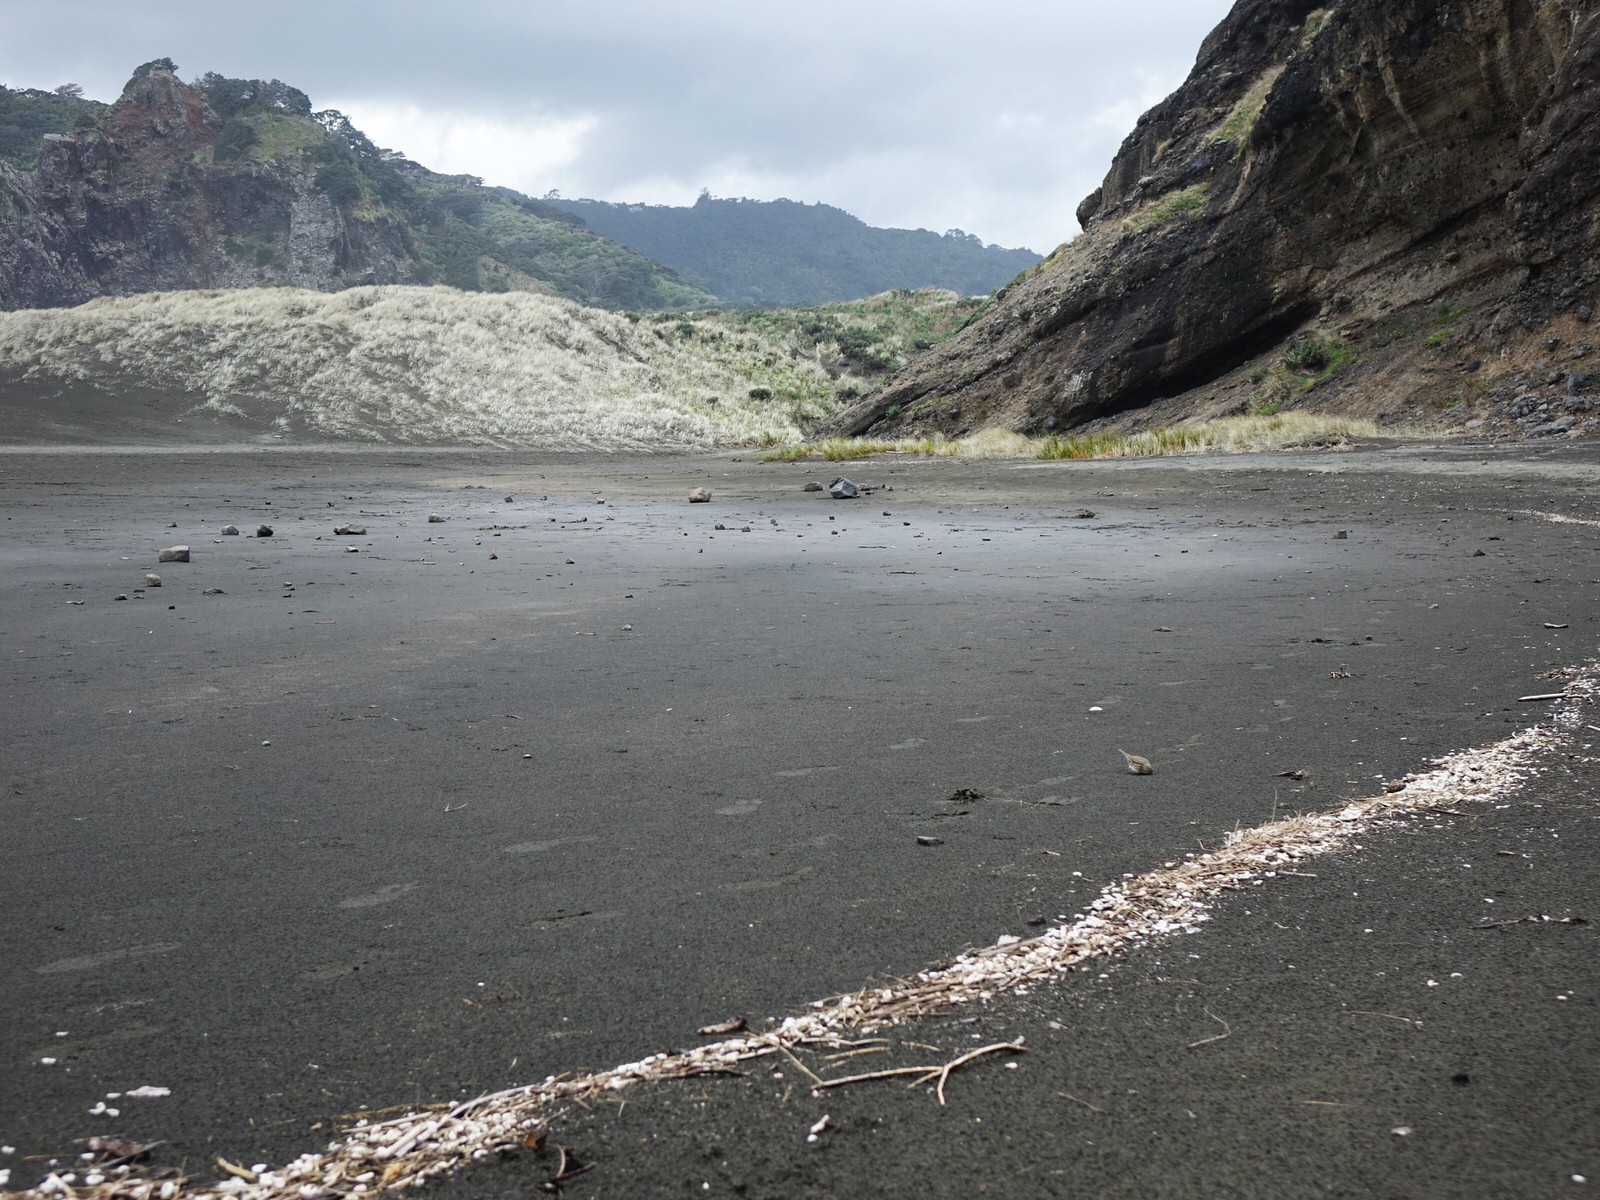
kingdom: Animalia
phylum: Chordata
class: Aves
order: Passeriformes
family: Motacillidae
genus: Anthus
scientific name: Anthus novaeseelandiae
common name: New zealand pipit
